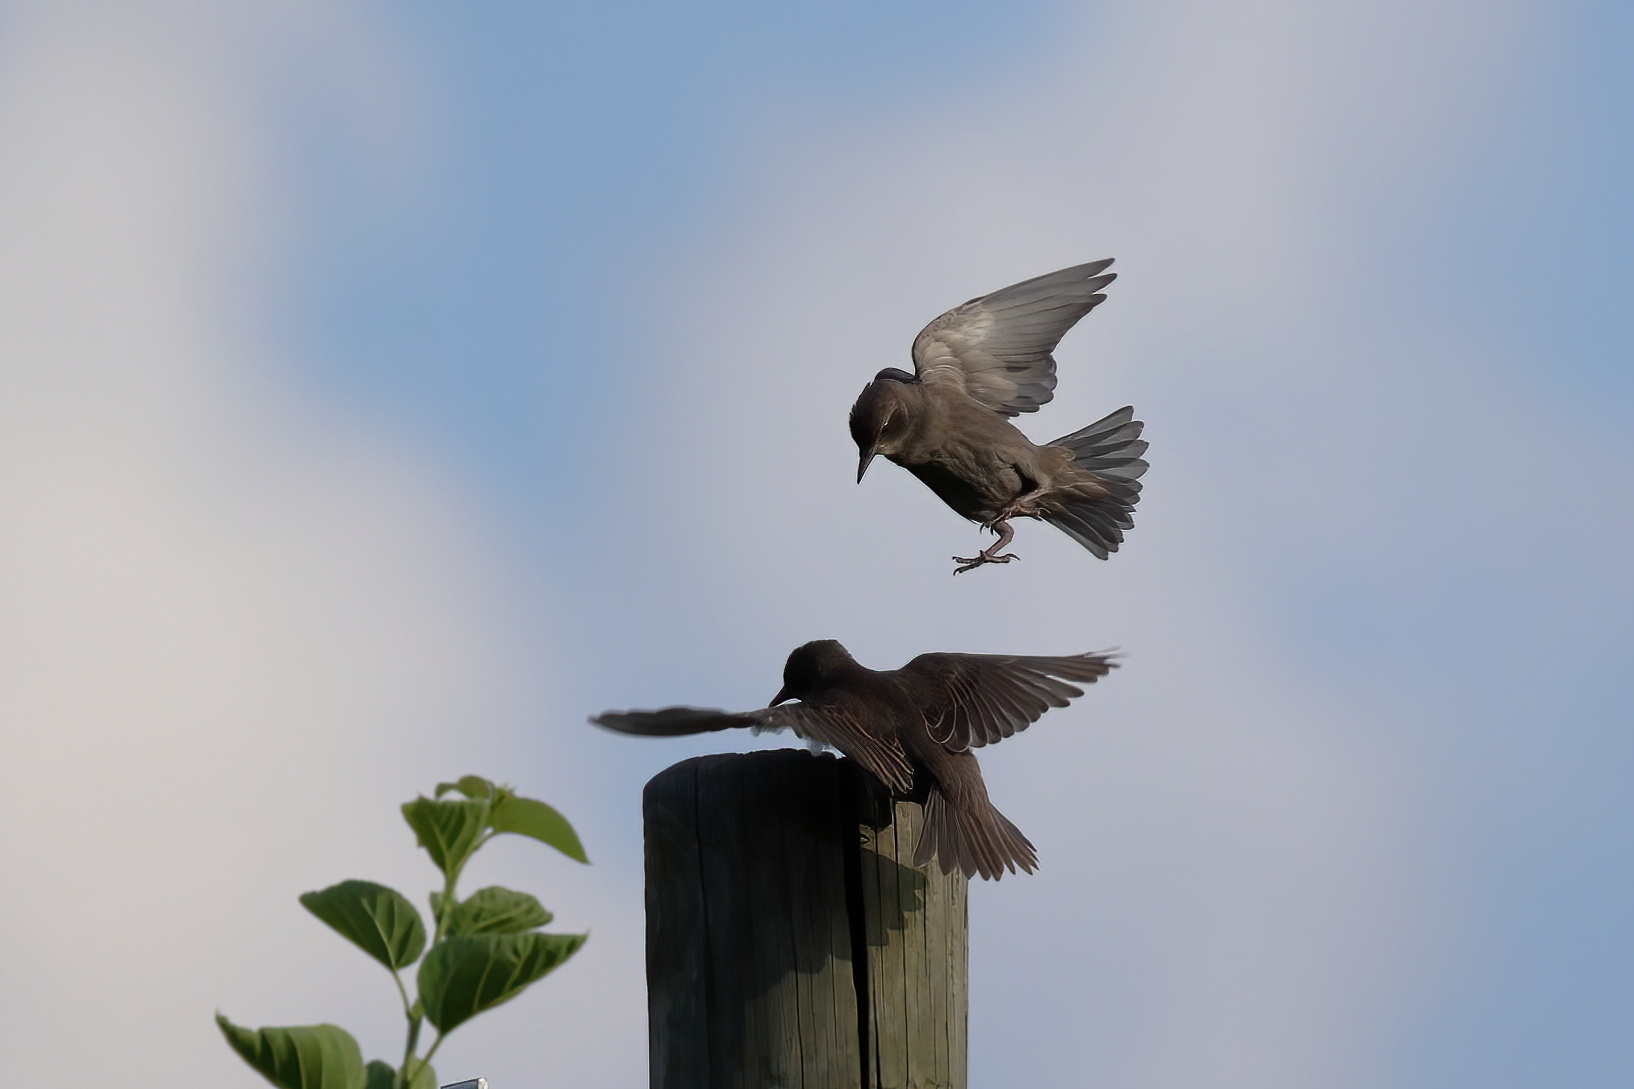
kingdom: Animalia
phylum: Chordata
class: Aves
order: Passeriformes
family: Sturnidae
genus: Sturnus
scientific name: Sturnus vulgaris
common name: Common starling
